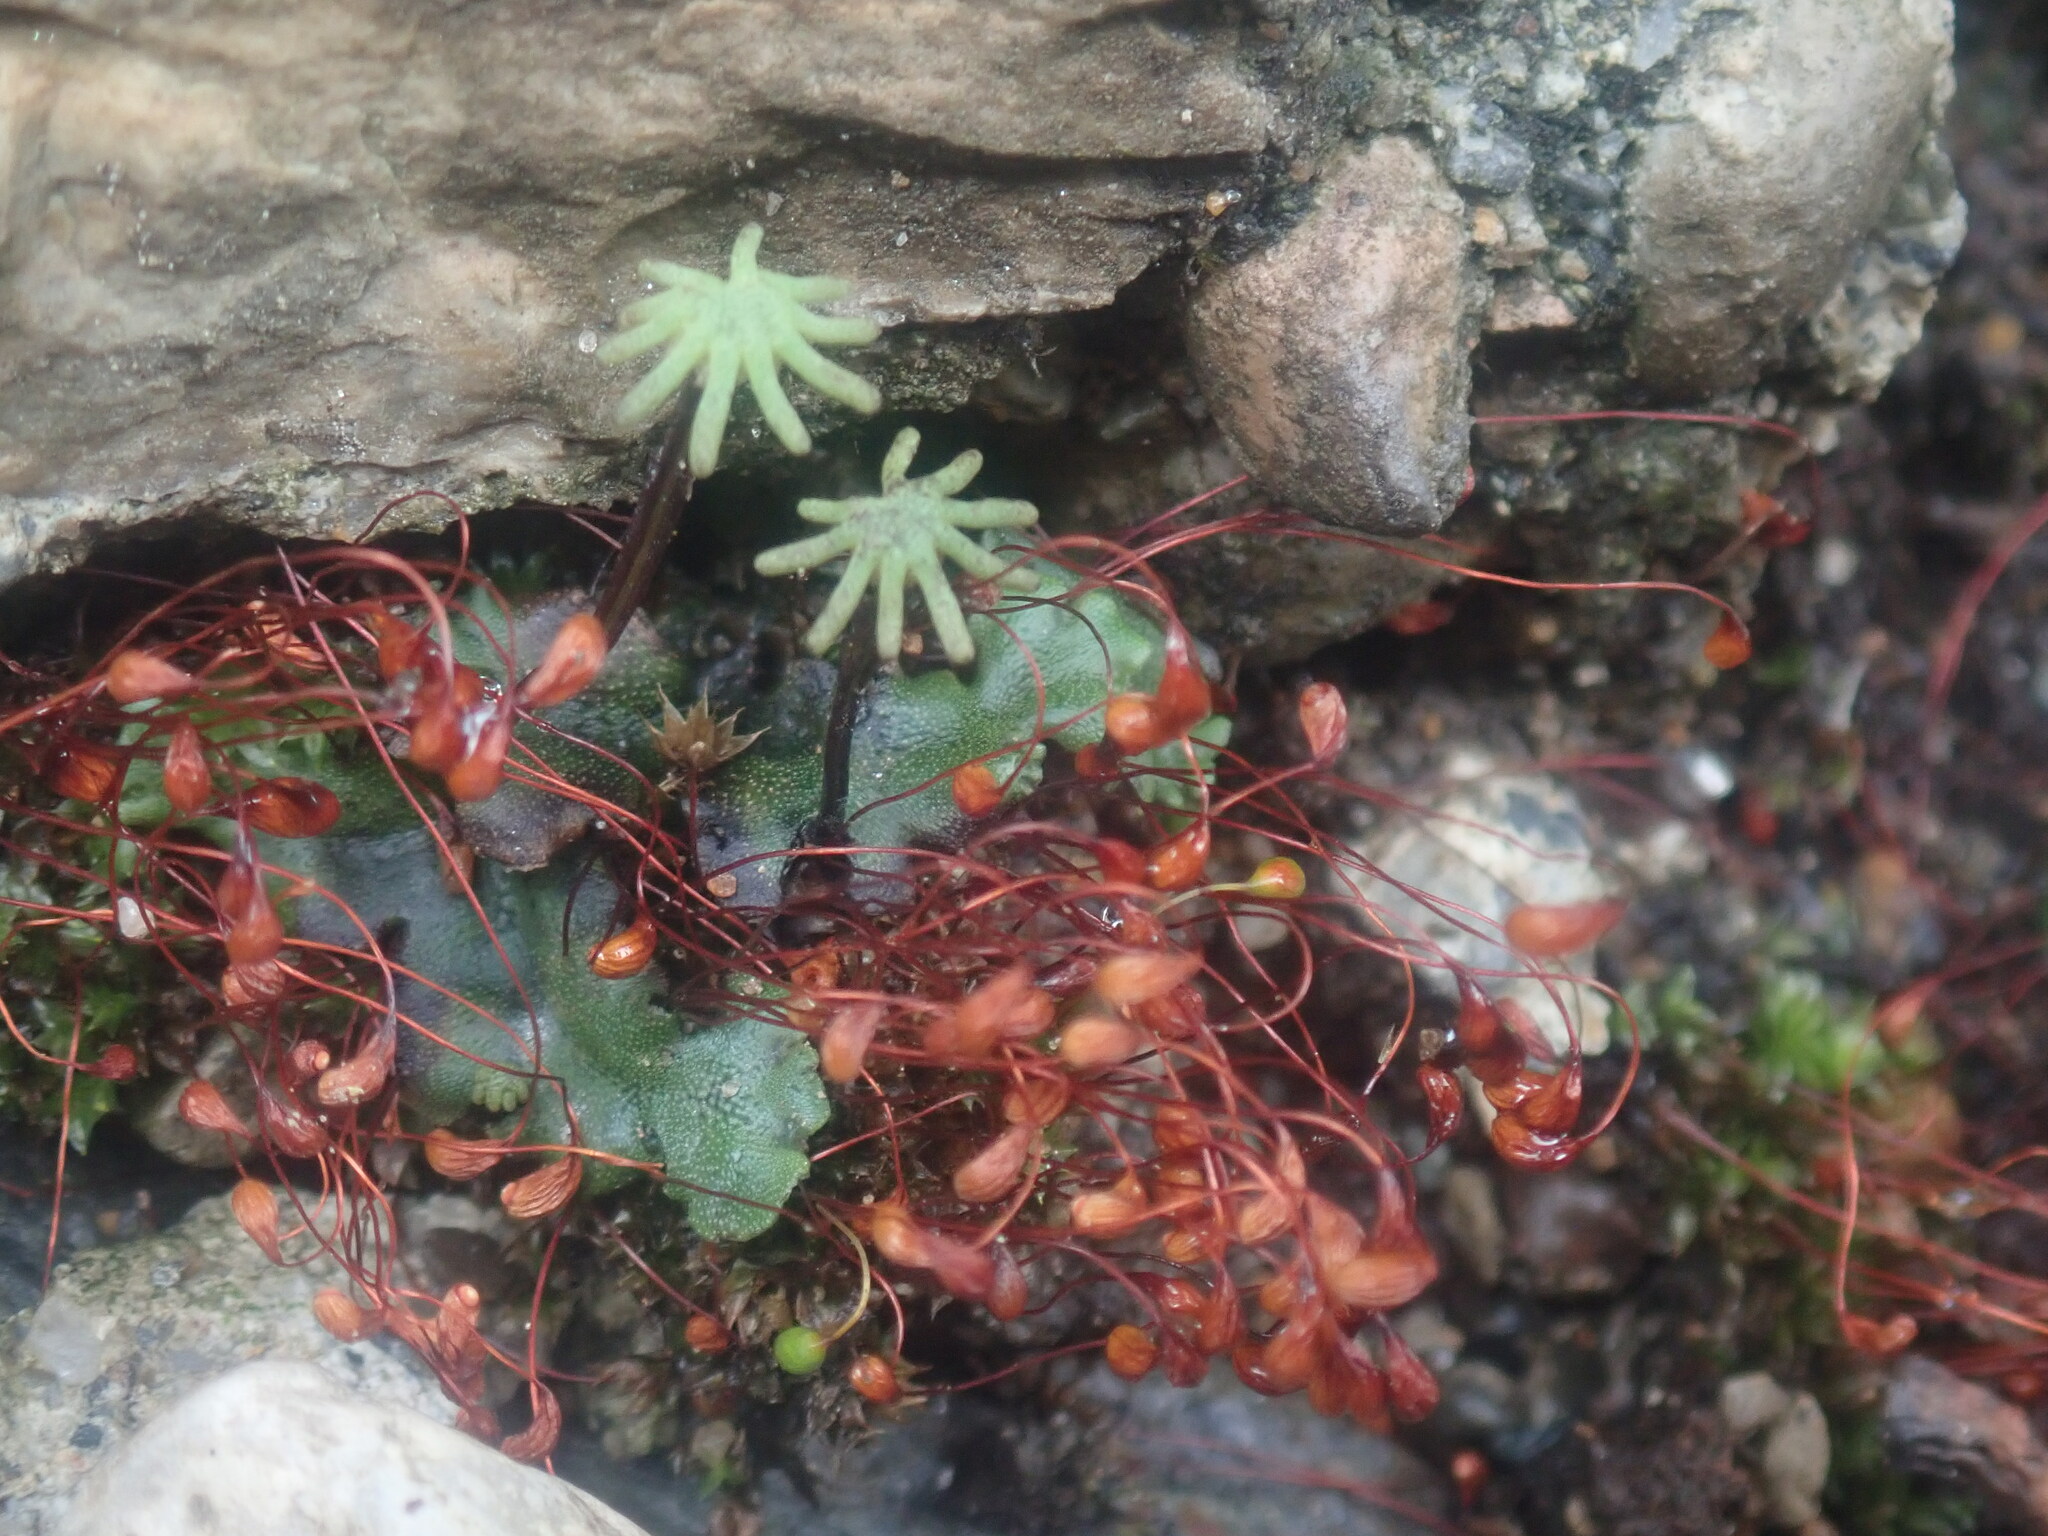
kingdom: Plantae
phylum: Marchantiophyta
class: Marchantiopsida
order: Marchantiales
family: Marchantiaceae
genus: Marchantia
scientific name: Marchantia polymorpha
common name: Common liverwort
